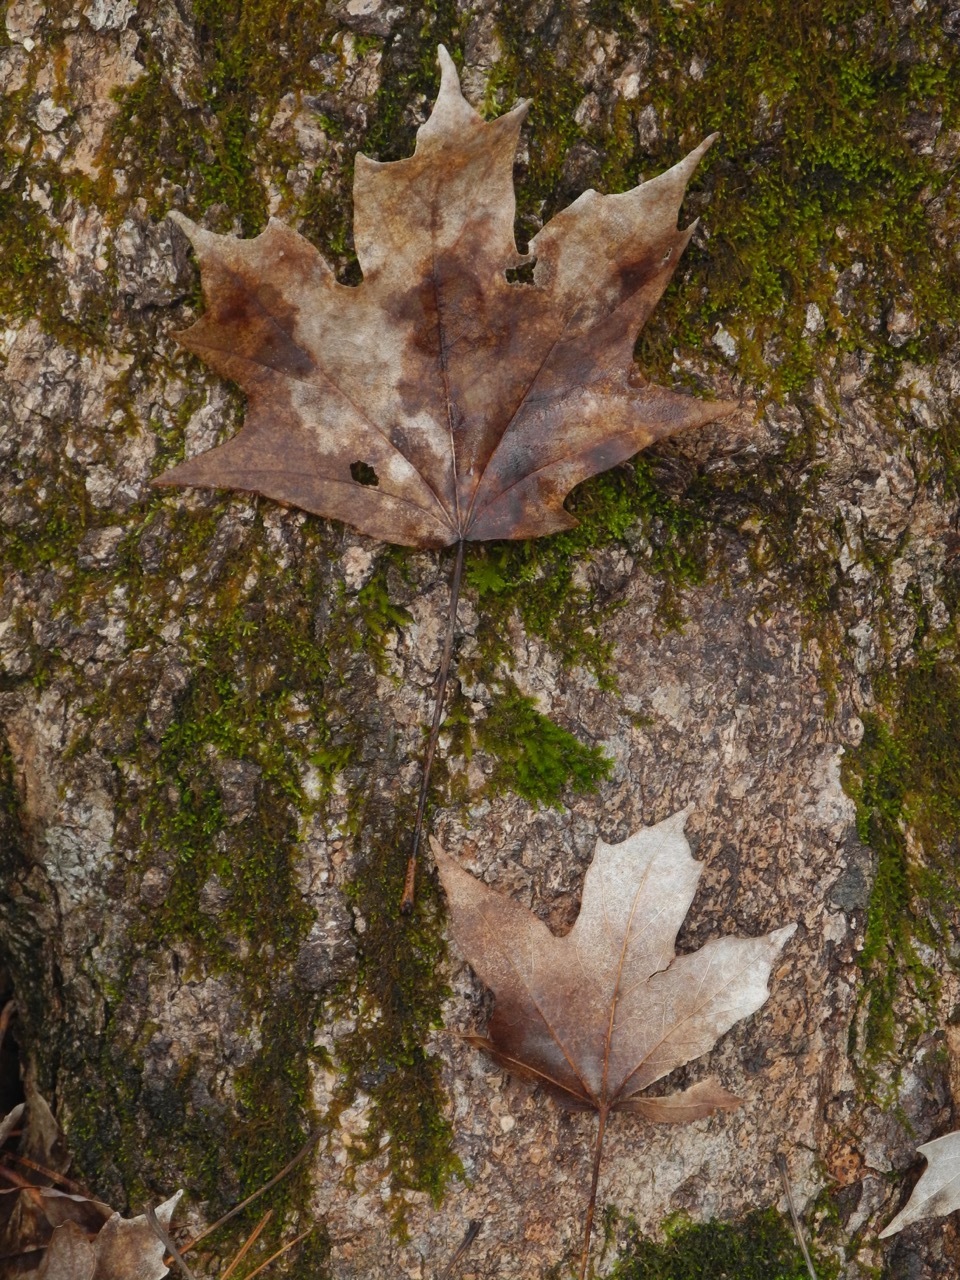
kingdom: Plantae
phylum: Tracheophyta
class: Magnoliopsida
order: Sapindales
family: Sapindaceae
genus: Acer
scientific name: Acer floridanum
